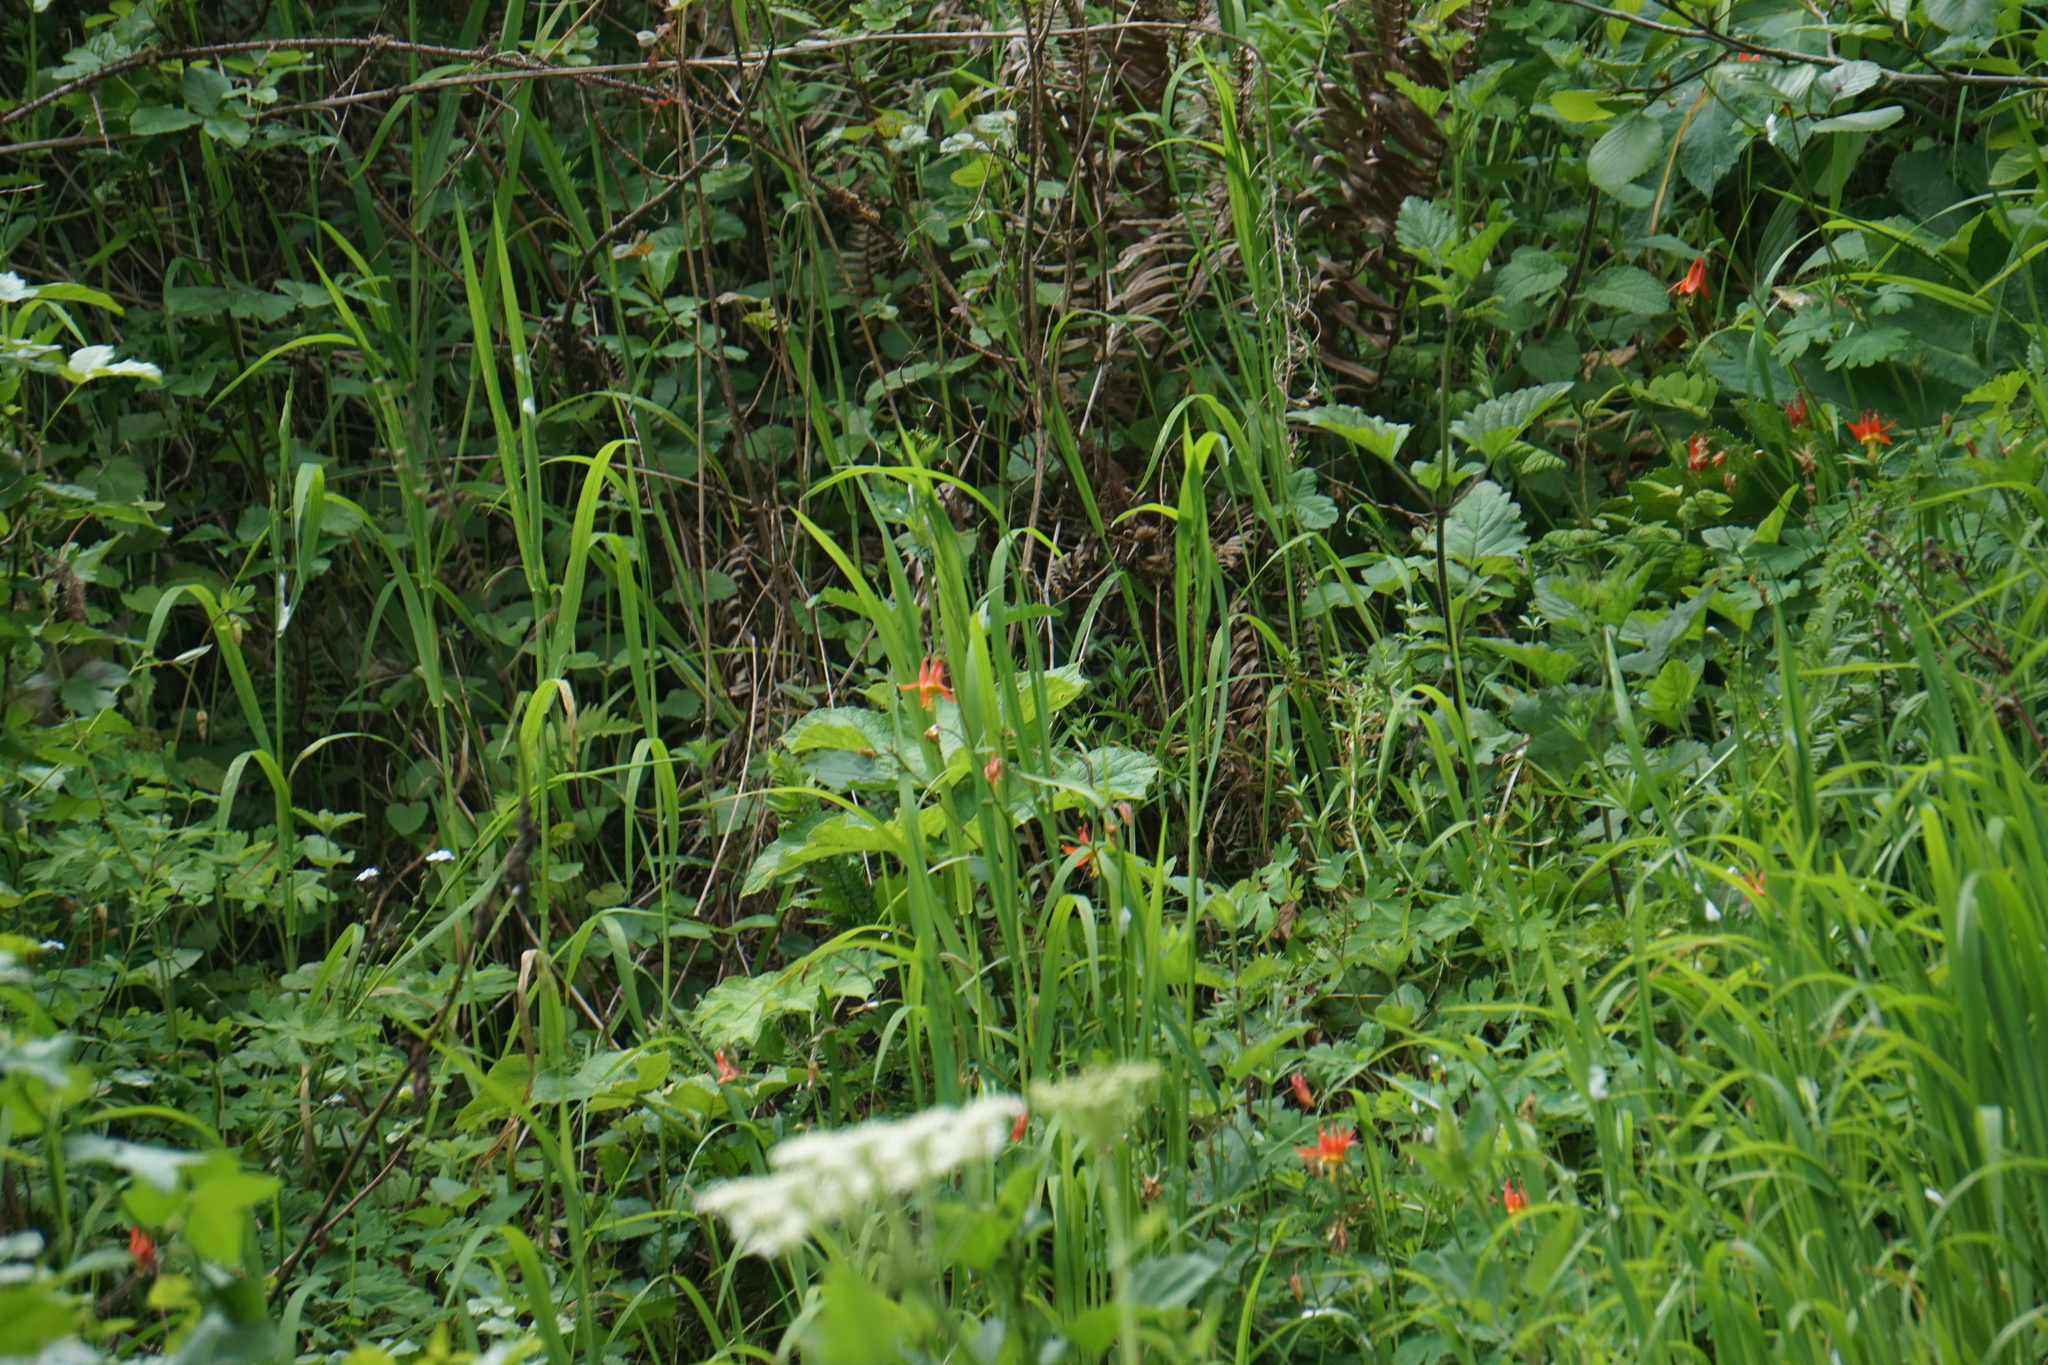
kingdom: Plantae
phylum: Tracheophyta
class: Magnoliopsida
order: Ranunculales
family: Ranunculaceae
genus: Aquilegia
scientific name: Aquilegia formosa
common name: Sitka columbine
